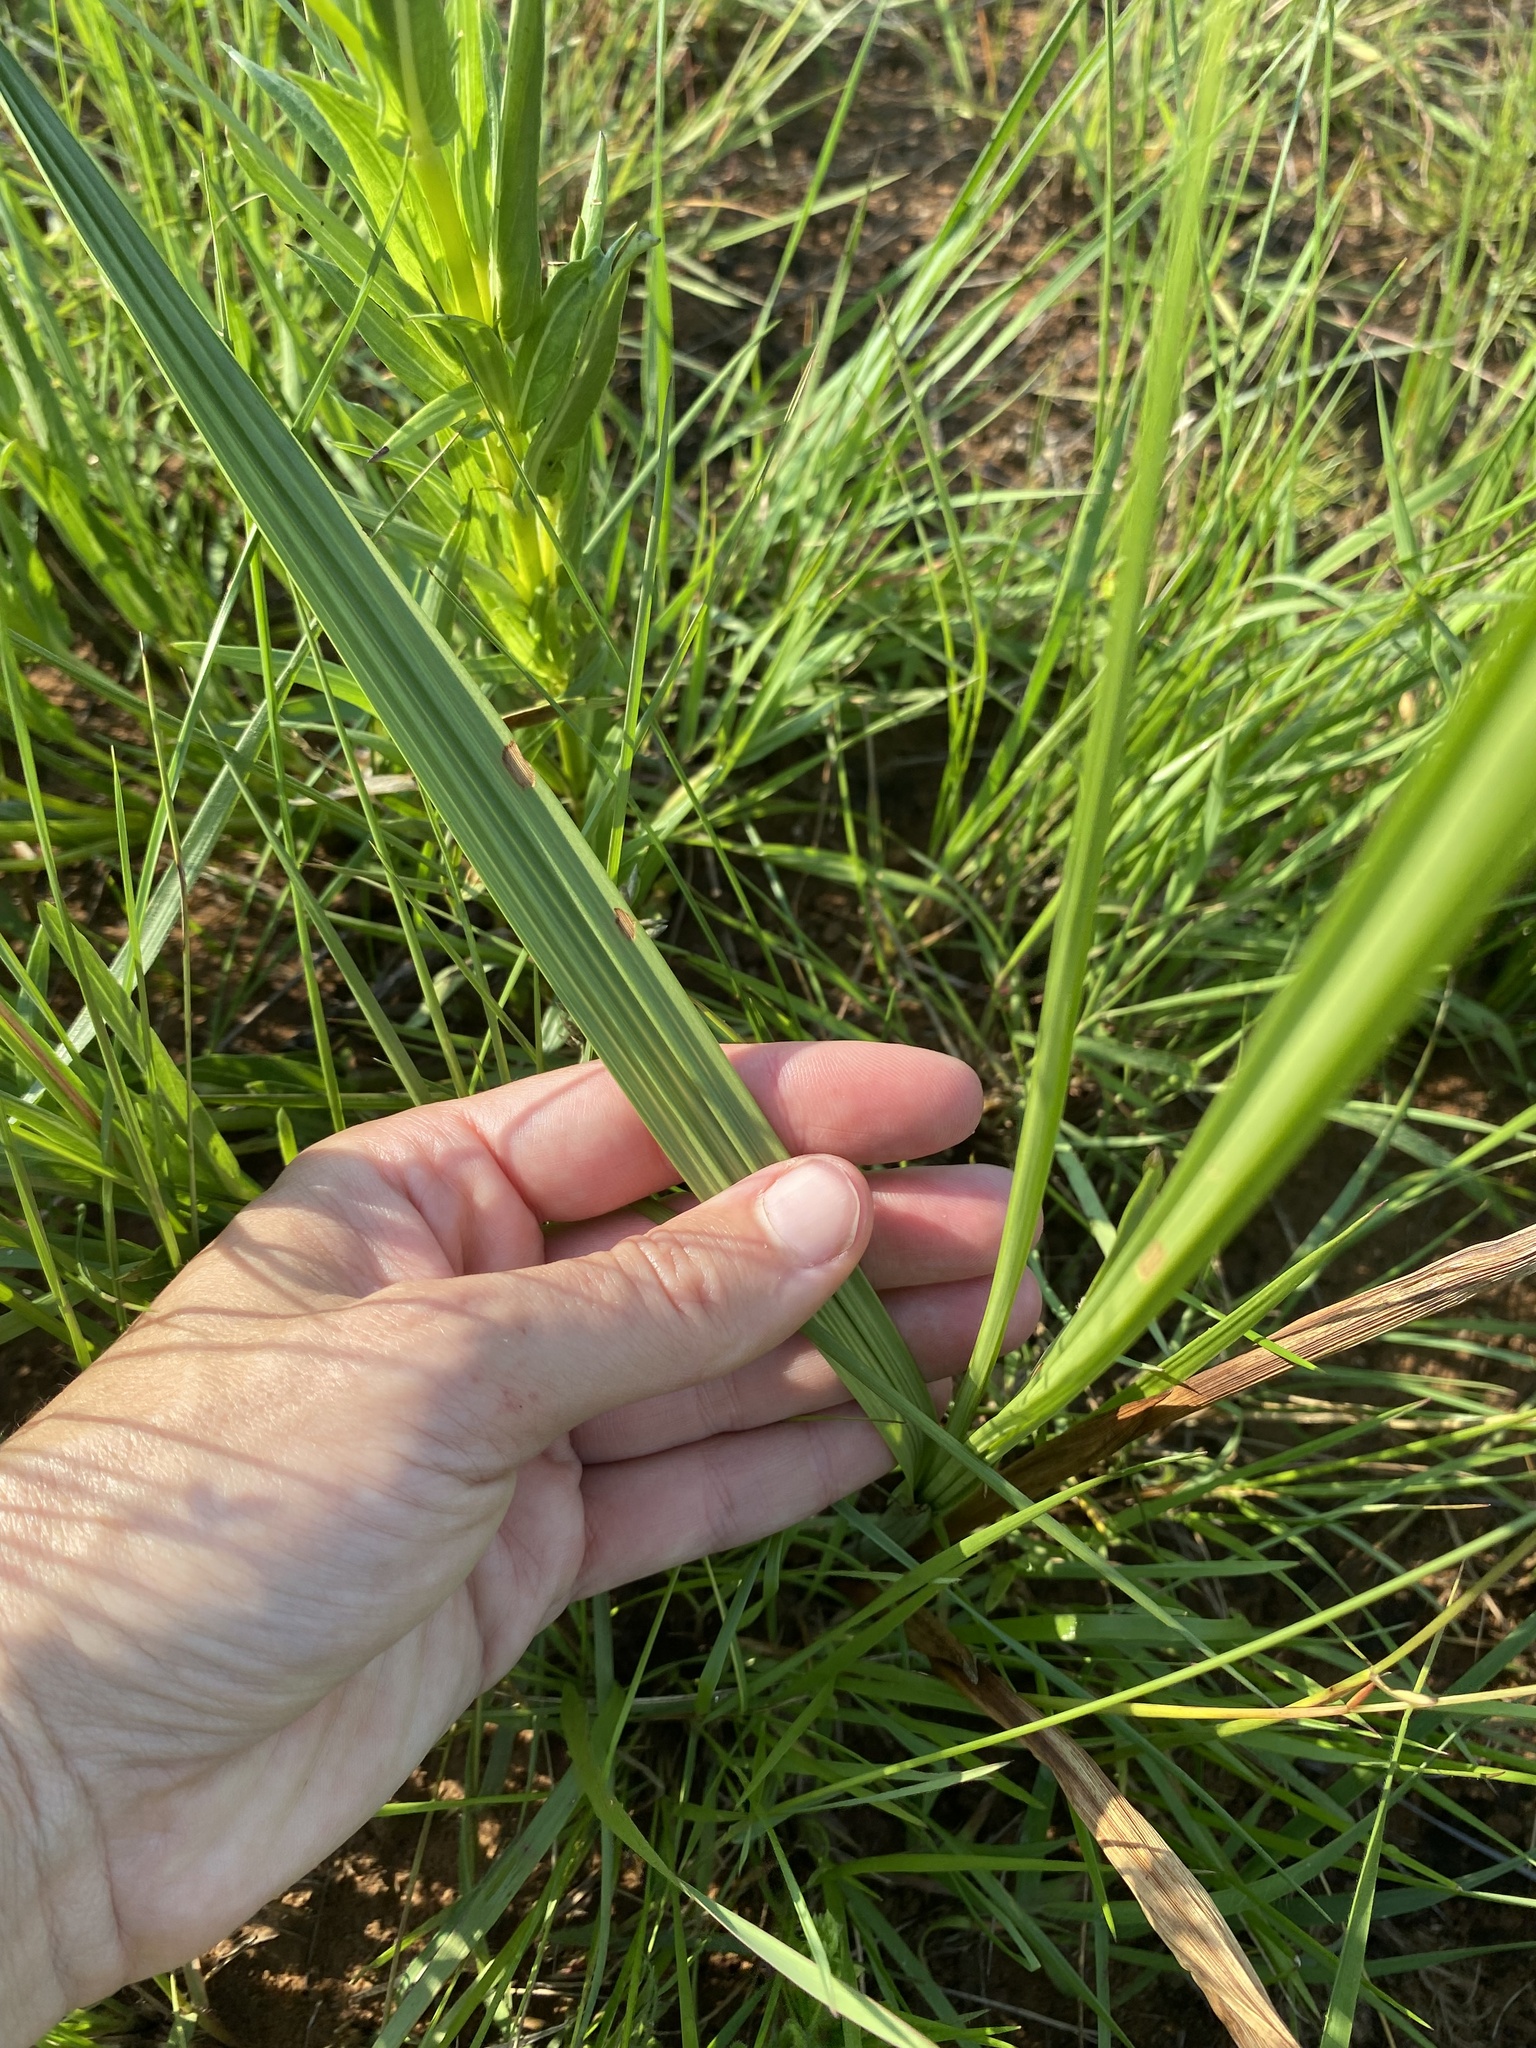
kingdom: Plantae
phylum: Tracheophyta
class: Liliopsida
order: Asparagales
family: Orchidaceae
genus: Eulophia
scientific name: Eulophia foliosa
